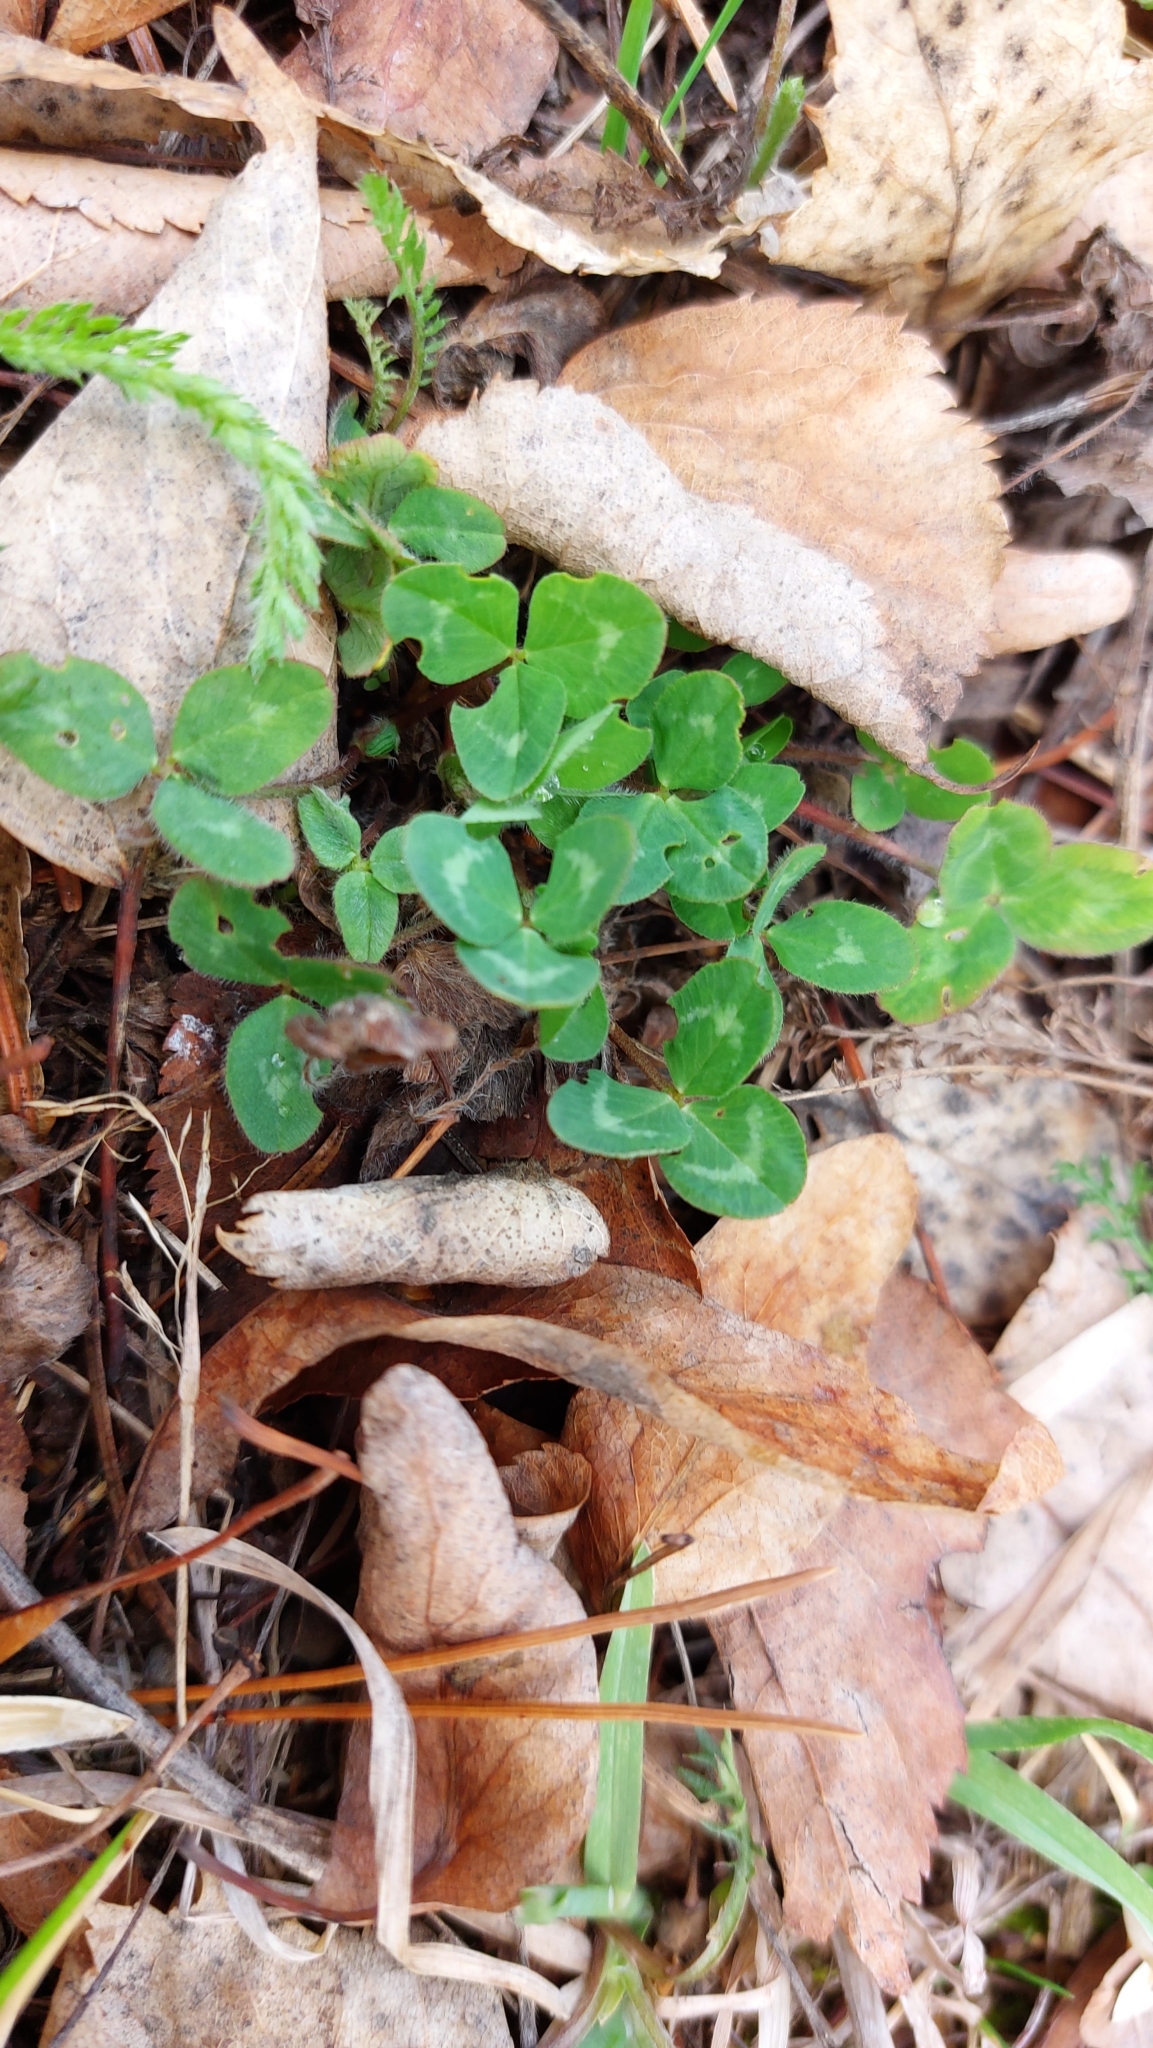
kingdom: Plantae
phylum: Tracheophyta
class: Magnoliopsida
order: Fabales
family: Fabaceae
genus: Trifolium
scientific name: Trifolium pratense
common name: Red clover
